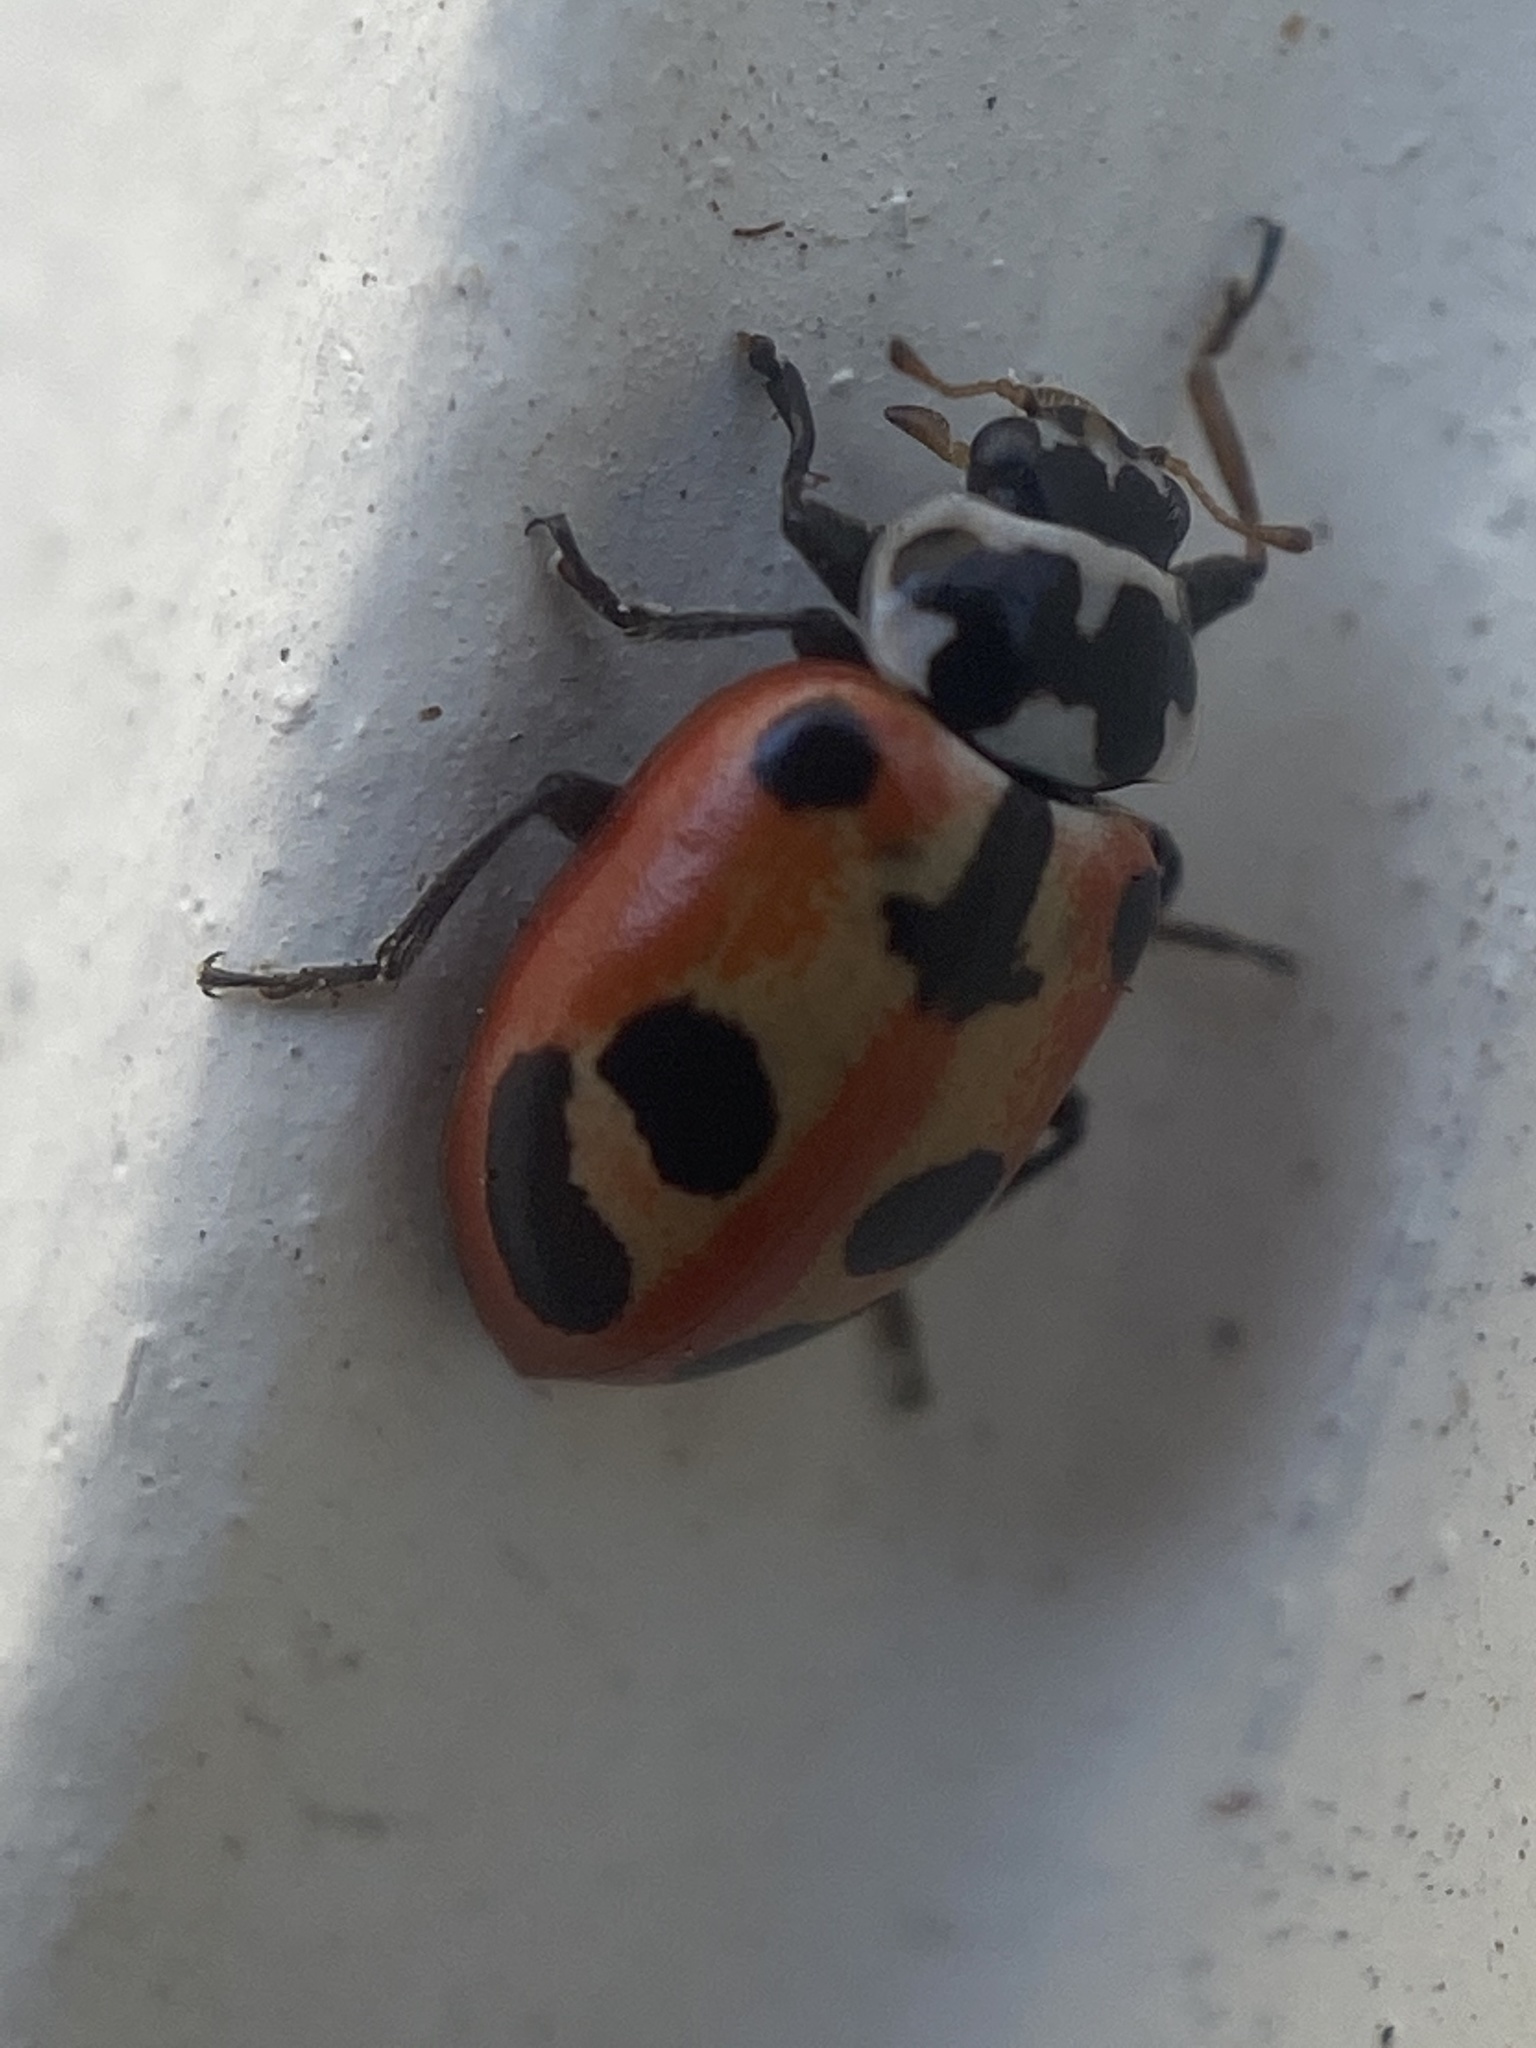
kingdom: Animalia
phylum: Arthropoda
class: Insecta
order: Coleoptera
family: Coccinellidae
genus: Hippodamia
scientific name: Hippodamia parenthesis
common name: Parenthesis lady beetle
